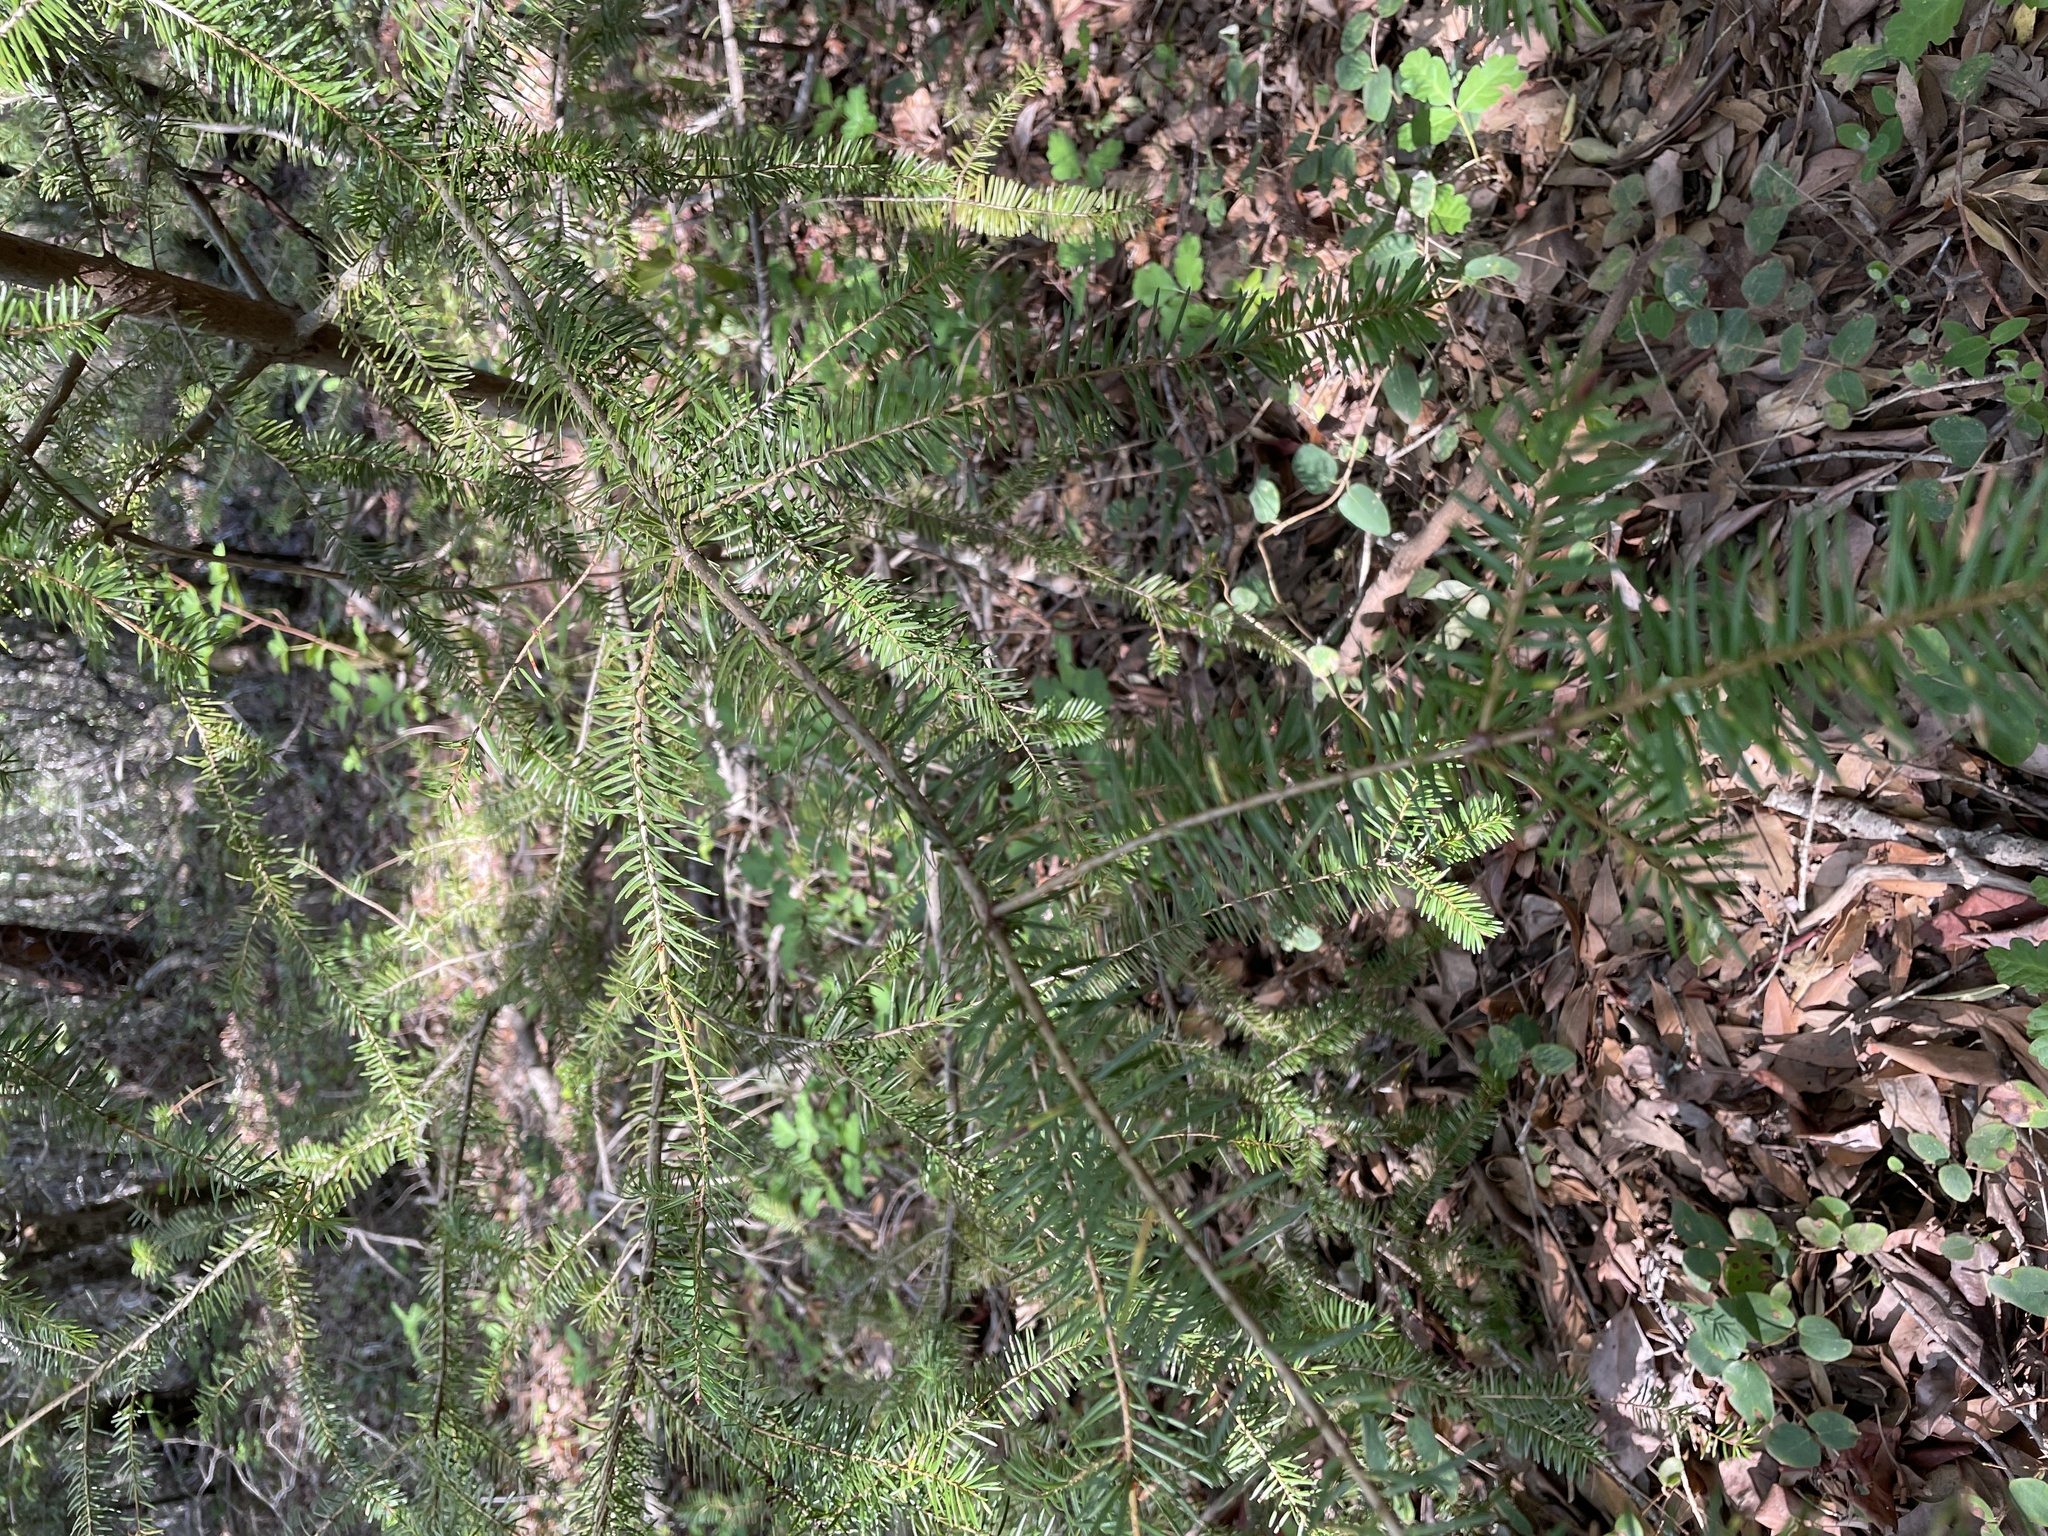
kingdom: Plantae
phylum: Tracheophyta
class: Pinopsida
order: Pinales
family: Pinaceae
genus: Pseudotsuga
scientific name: Pseudotsuga menziesii
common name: Douglas fir
